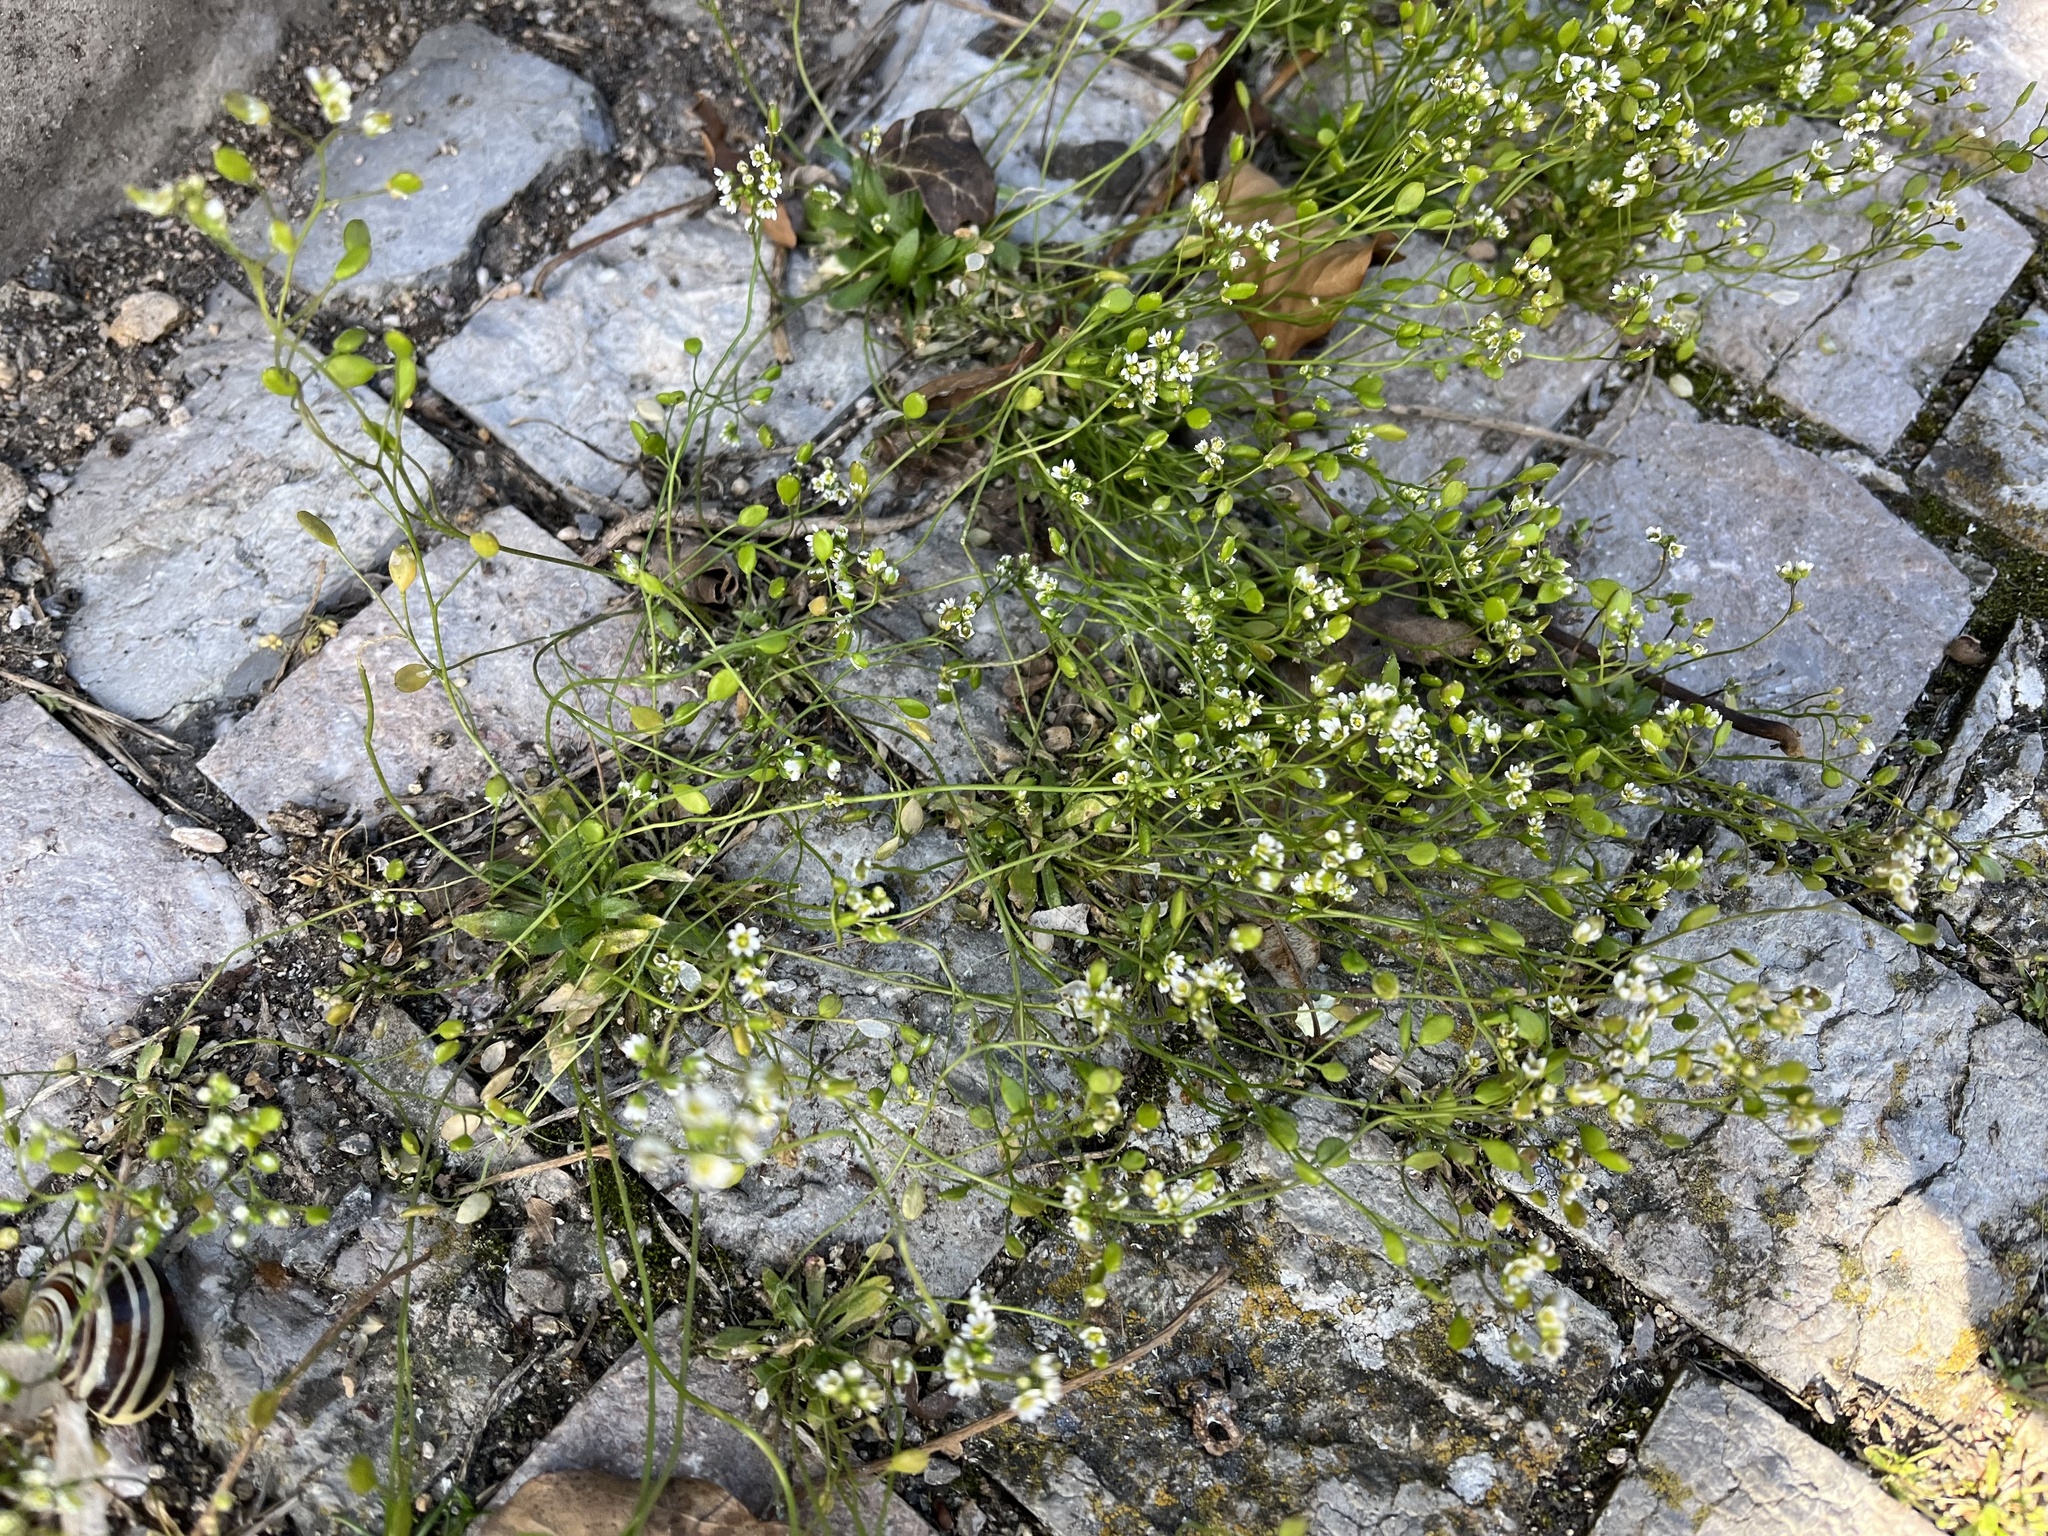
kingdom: Plantae
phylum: Tracheophyta
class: Magnoliopsida
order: Brassicales
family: Brassicaceae
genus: Draba
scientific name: Draba verna
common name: Spring draba
